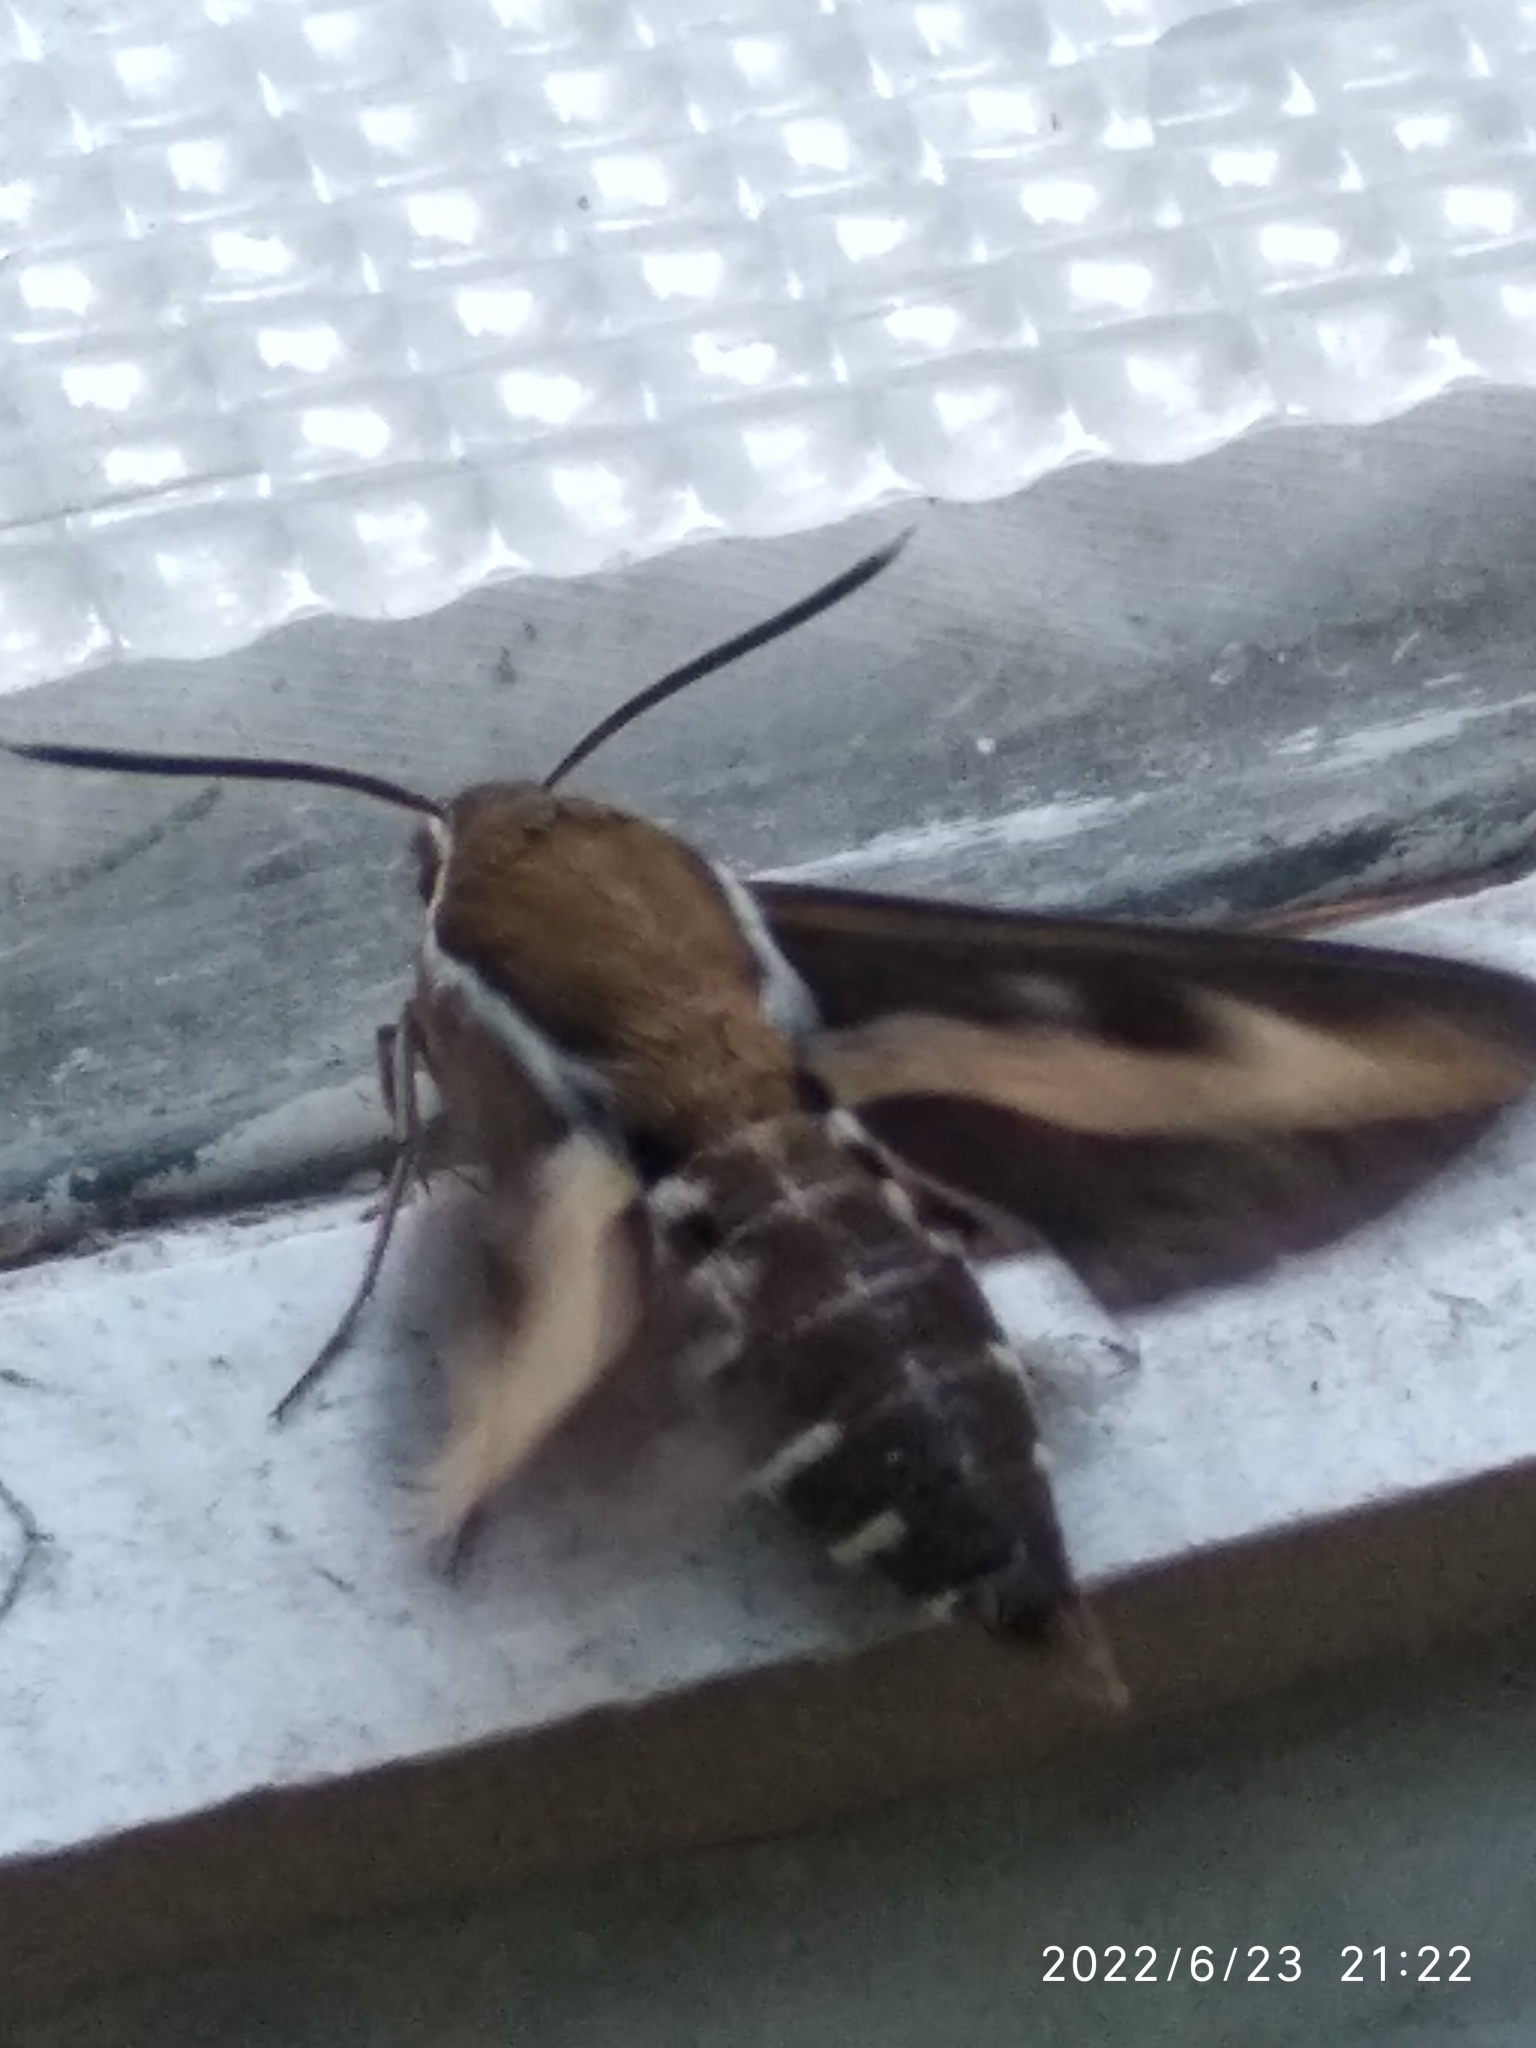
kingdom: Animalia
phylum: Arthropoda
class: Insecta
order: Lepidoptera
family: Sphingidae
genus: Hyles
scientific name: Hyles gallii
